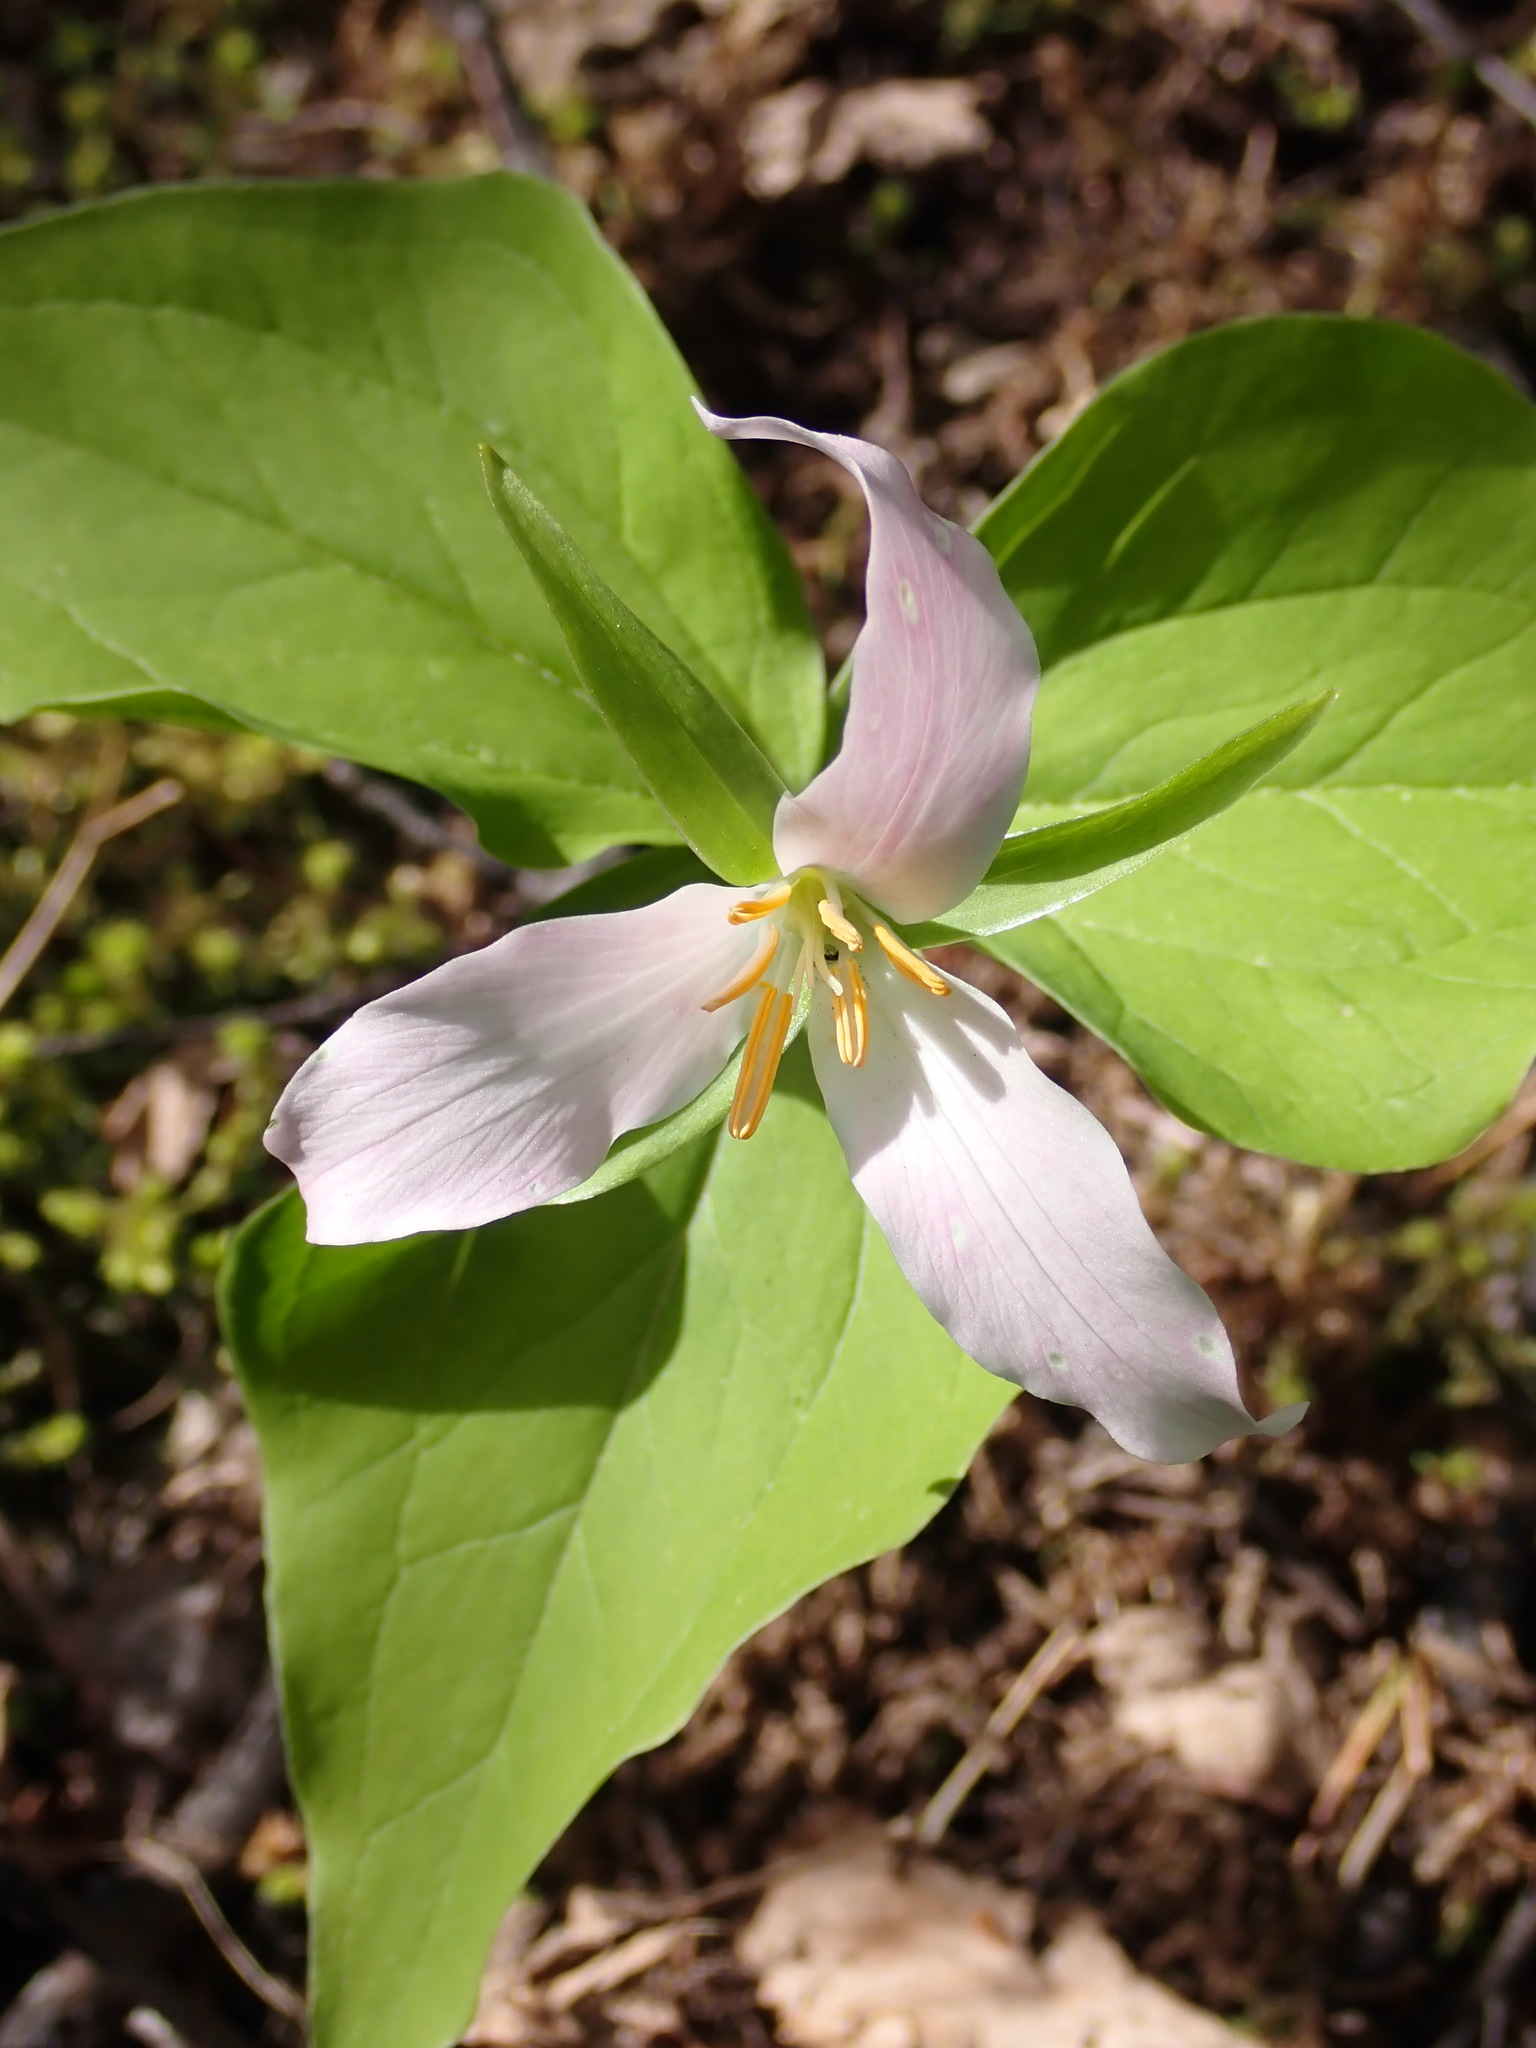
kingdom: Plantae
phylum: Tracheophyta
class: Liliopsida
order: Liliales
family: Melanthiaceae
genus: Trillium
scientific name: Trillium ovatum
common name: Pacific trillium
